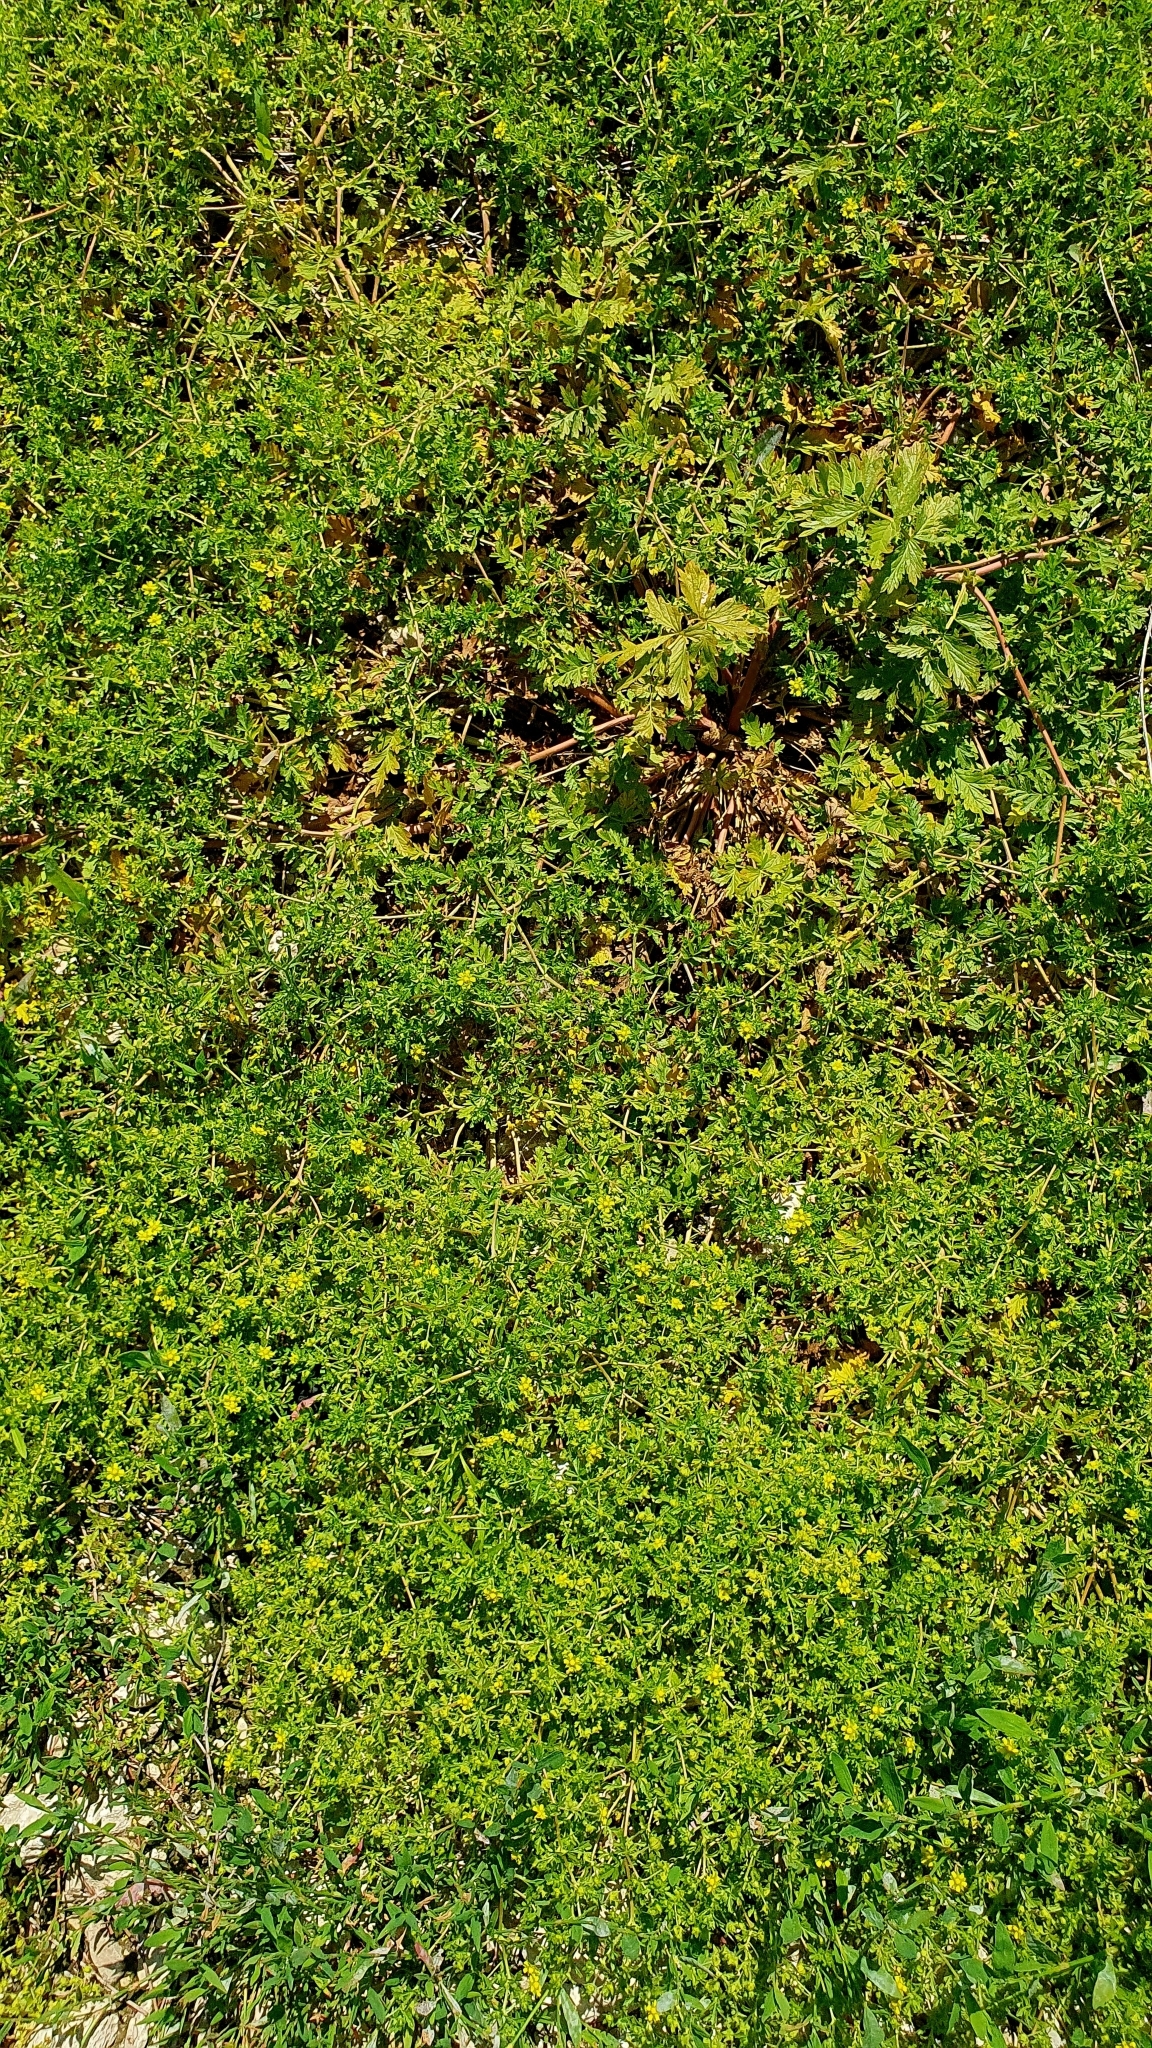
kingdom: Plantae
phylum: Tracheophyta
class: Magnoliopsida
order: Rosales
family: Rosaceae
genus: Potentilla
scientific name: Potentilla supina
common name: Prostrate cinquefoil
